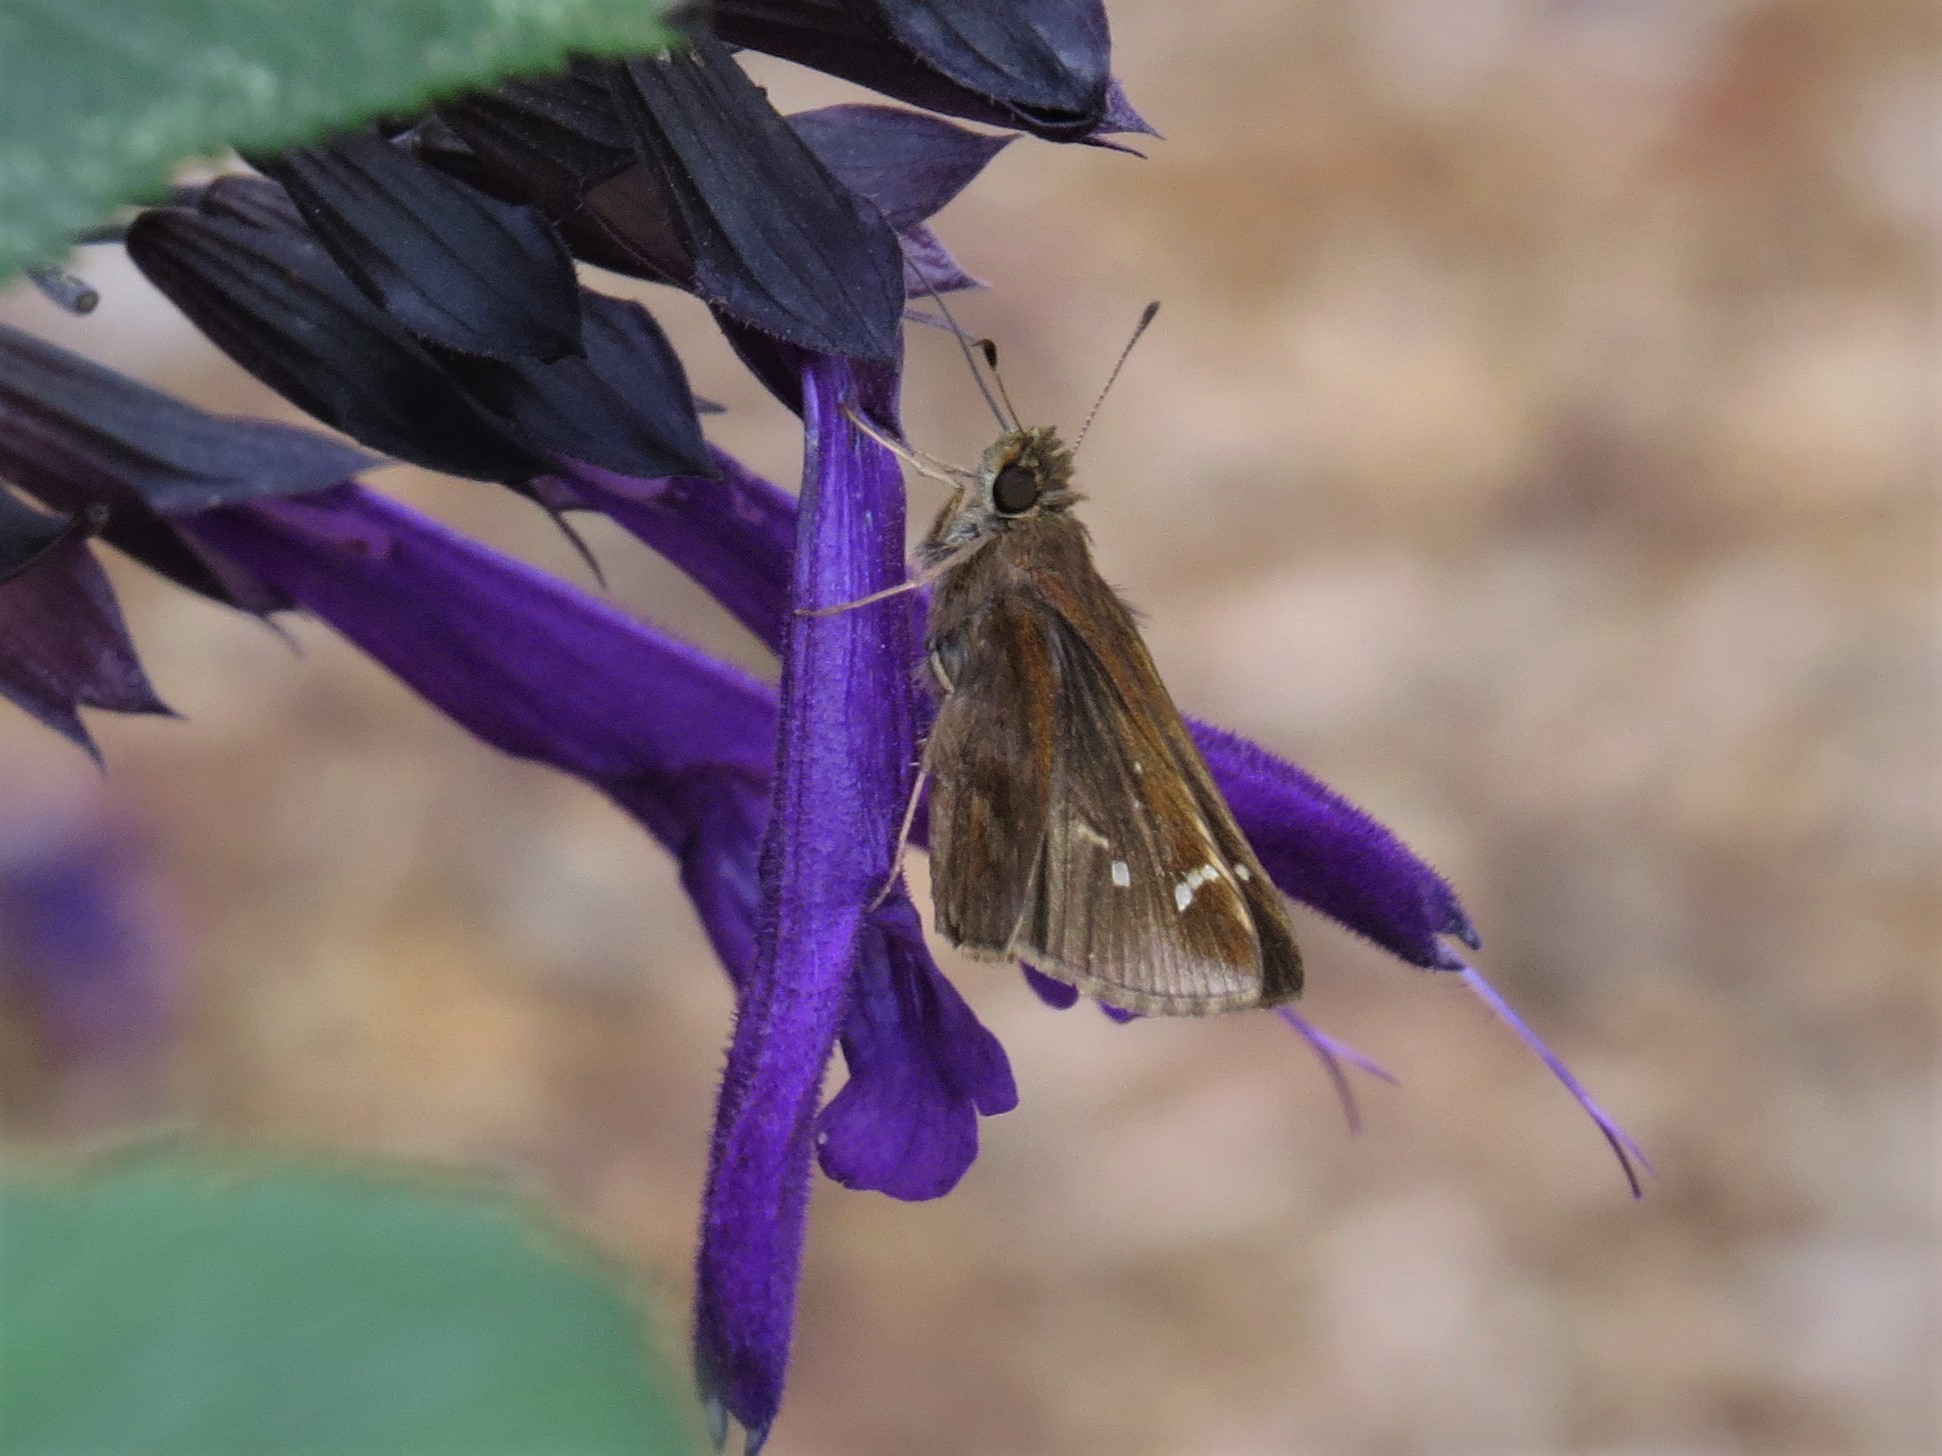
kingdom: Animalia
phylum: Arthropoda
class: Insecta
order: Lepidoptera
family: Hesperiidae
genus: Lerema
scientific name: Lerema accius
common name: Clouded skipper
